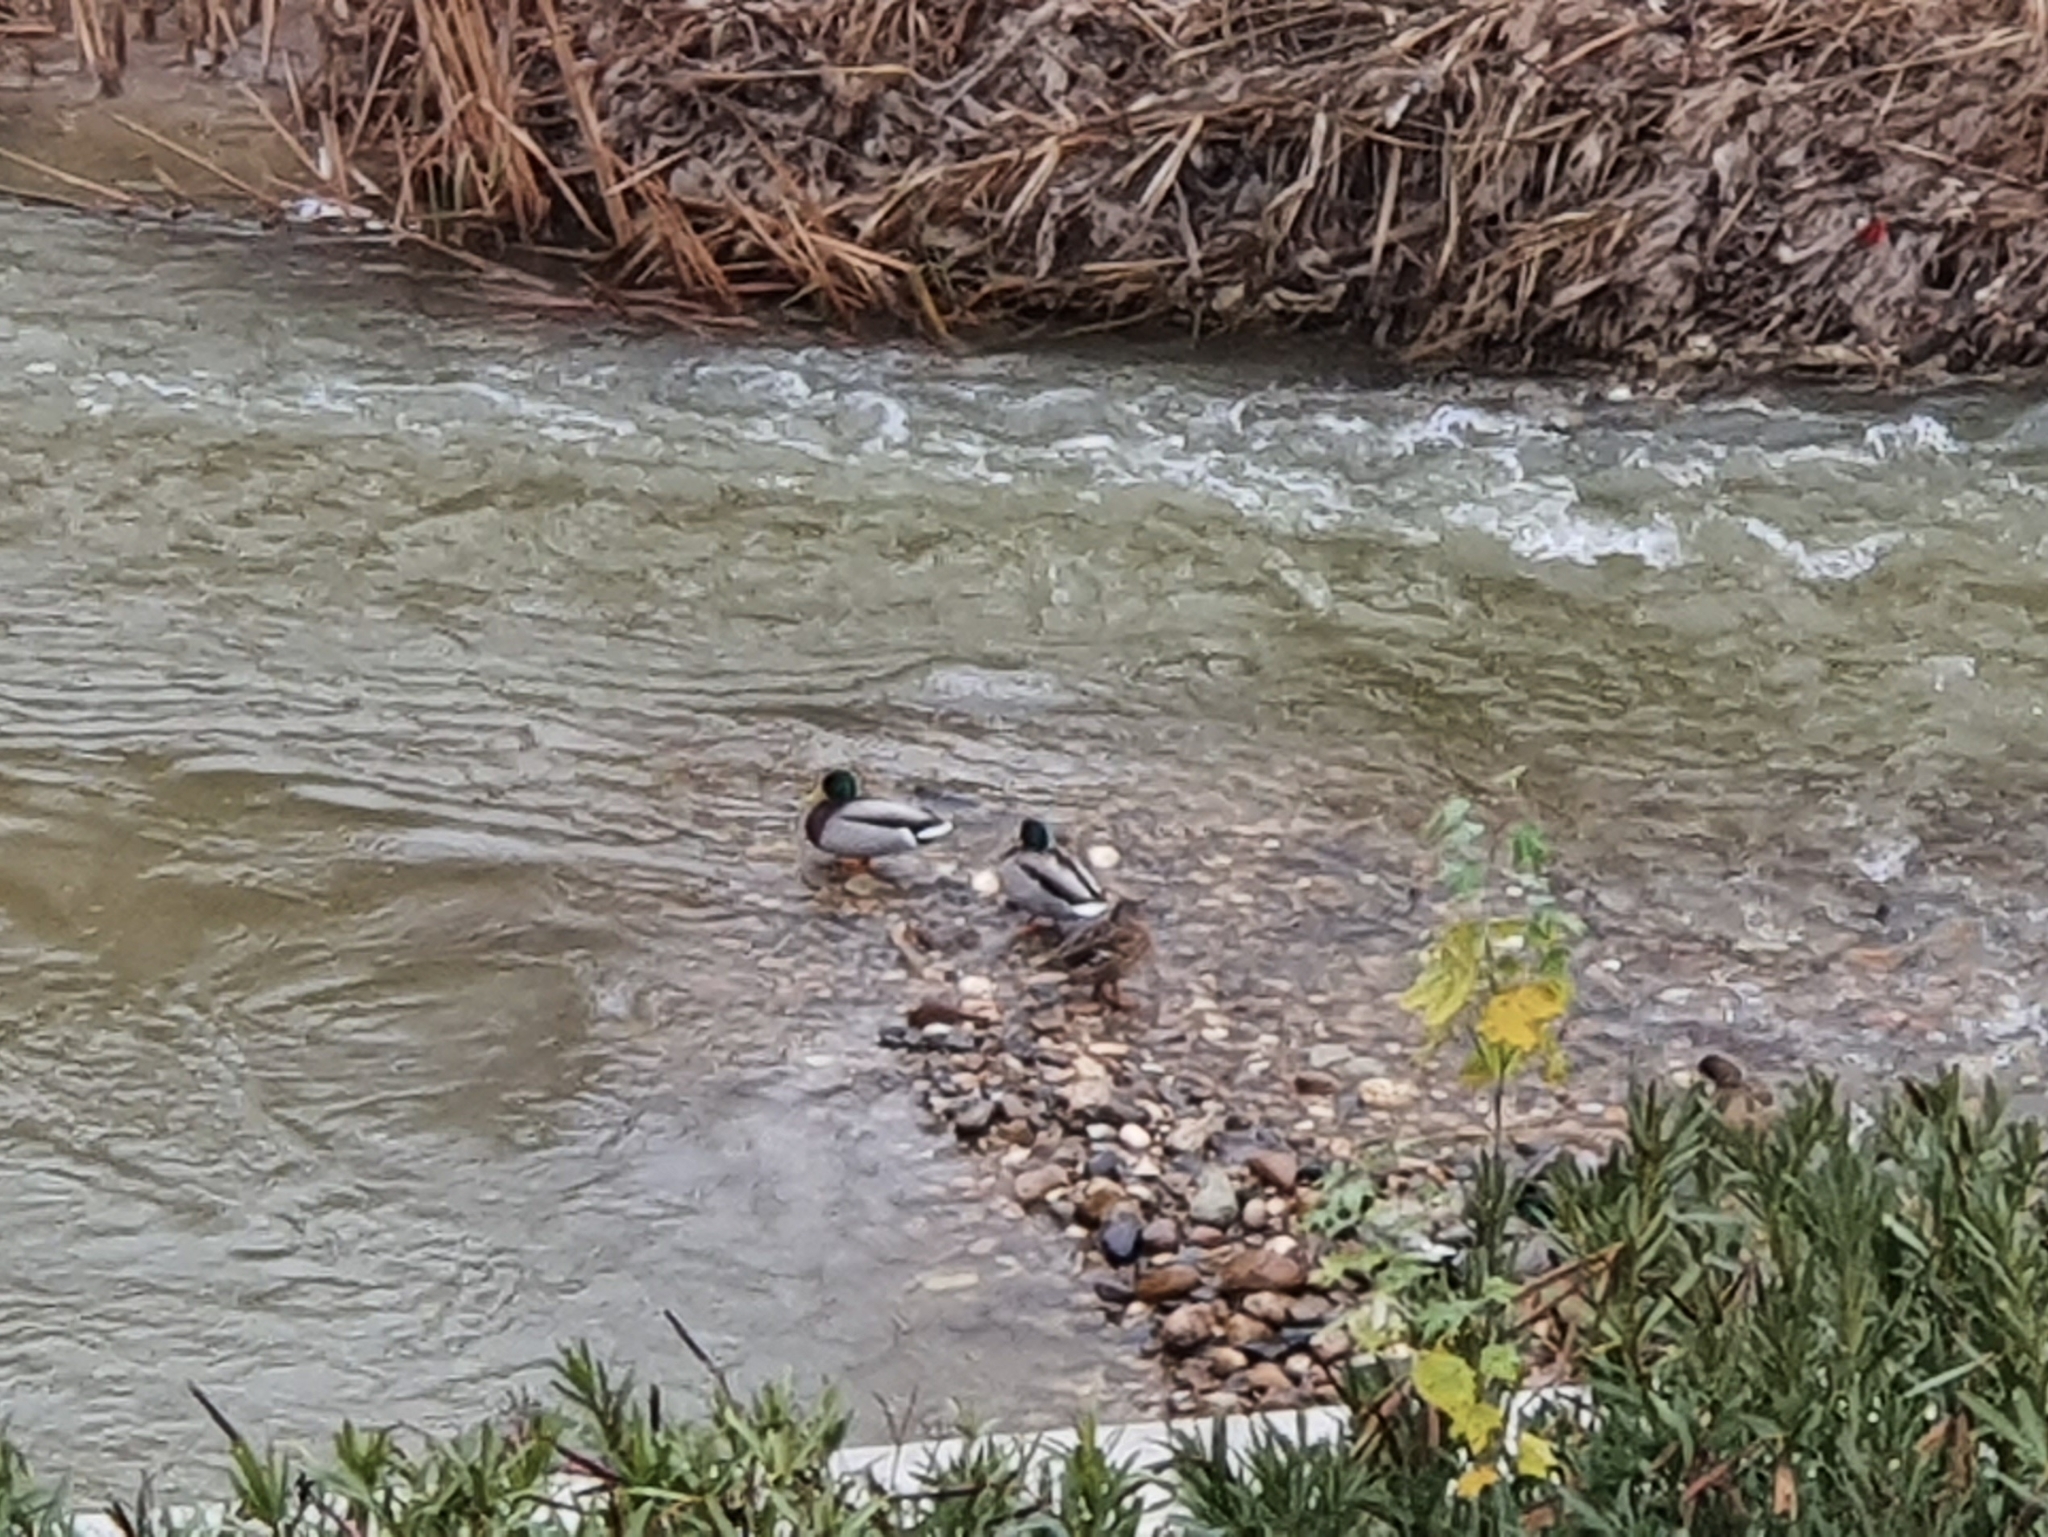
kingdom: Animalia
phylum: Chordata
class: Aves
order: Anseriformes
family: Anatidae
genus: Anas
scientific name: Anas platyrhynchos
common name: Mallard
